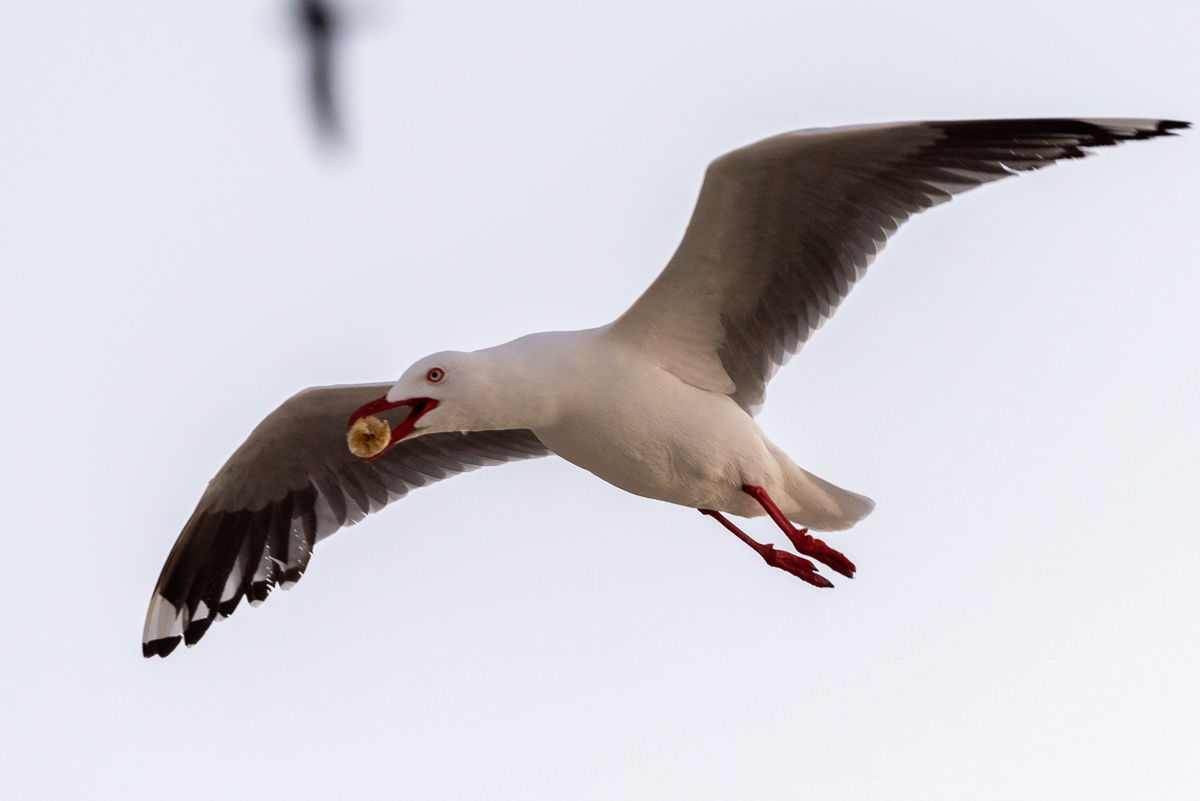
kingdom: Animalia
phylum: Chordata
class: Aves
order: Charadriiformes
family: Laridae
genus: Chroicocephalus
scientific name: Chroicocephalus novaehollandiae
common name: Silver gull
